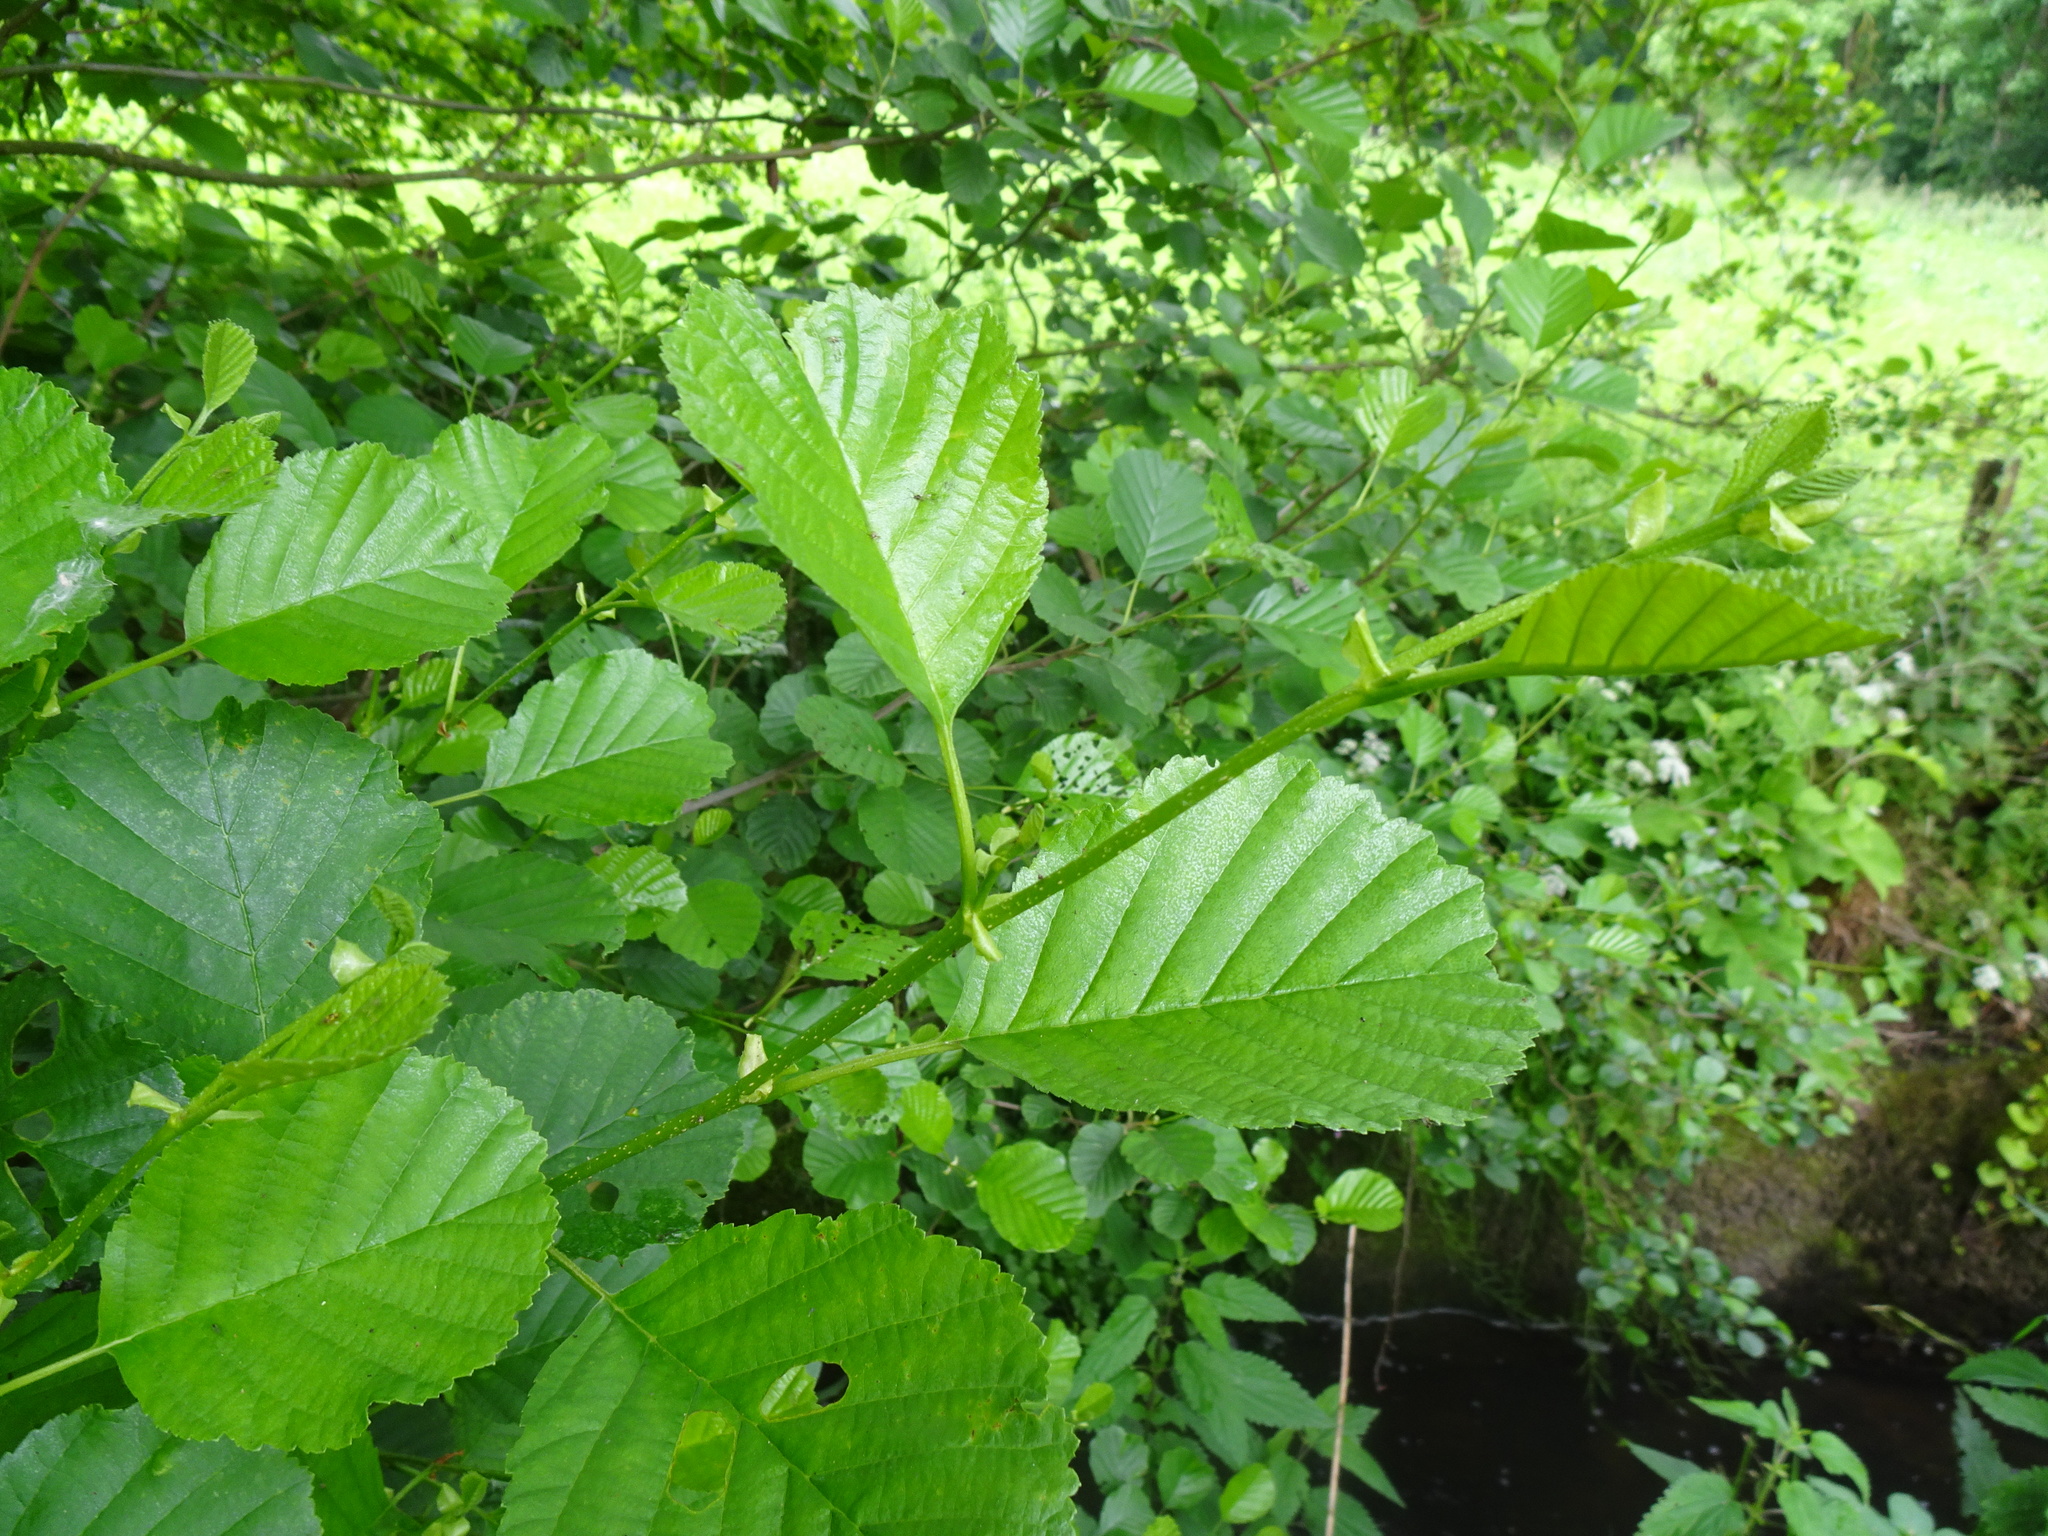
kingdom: Plantae
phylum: Tracheophyta
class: Magnoliopsida
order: Fagales
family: Betulaceae
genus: Alnus
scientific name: Alnus glutinosa
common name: Black alder
